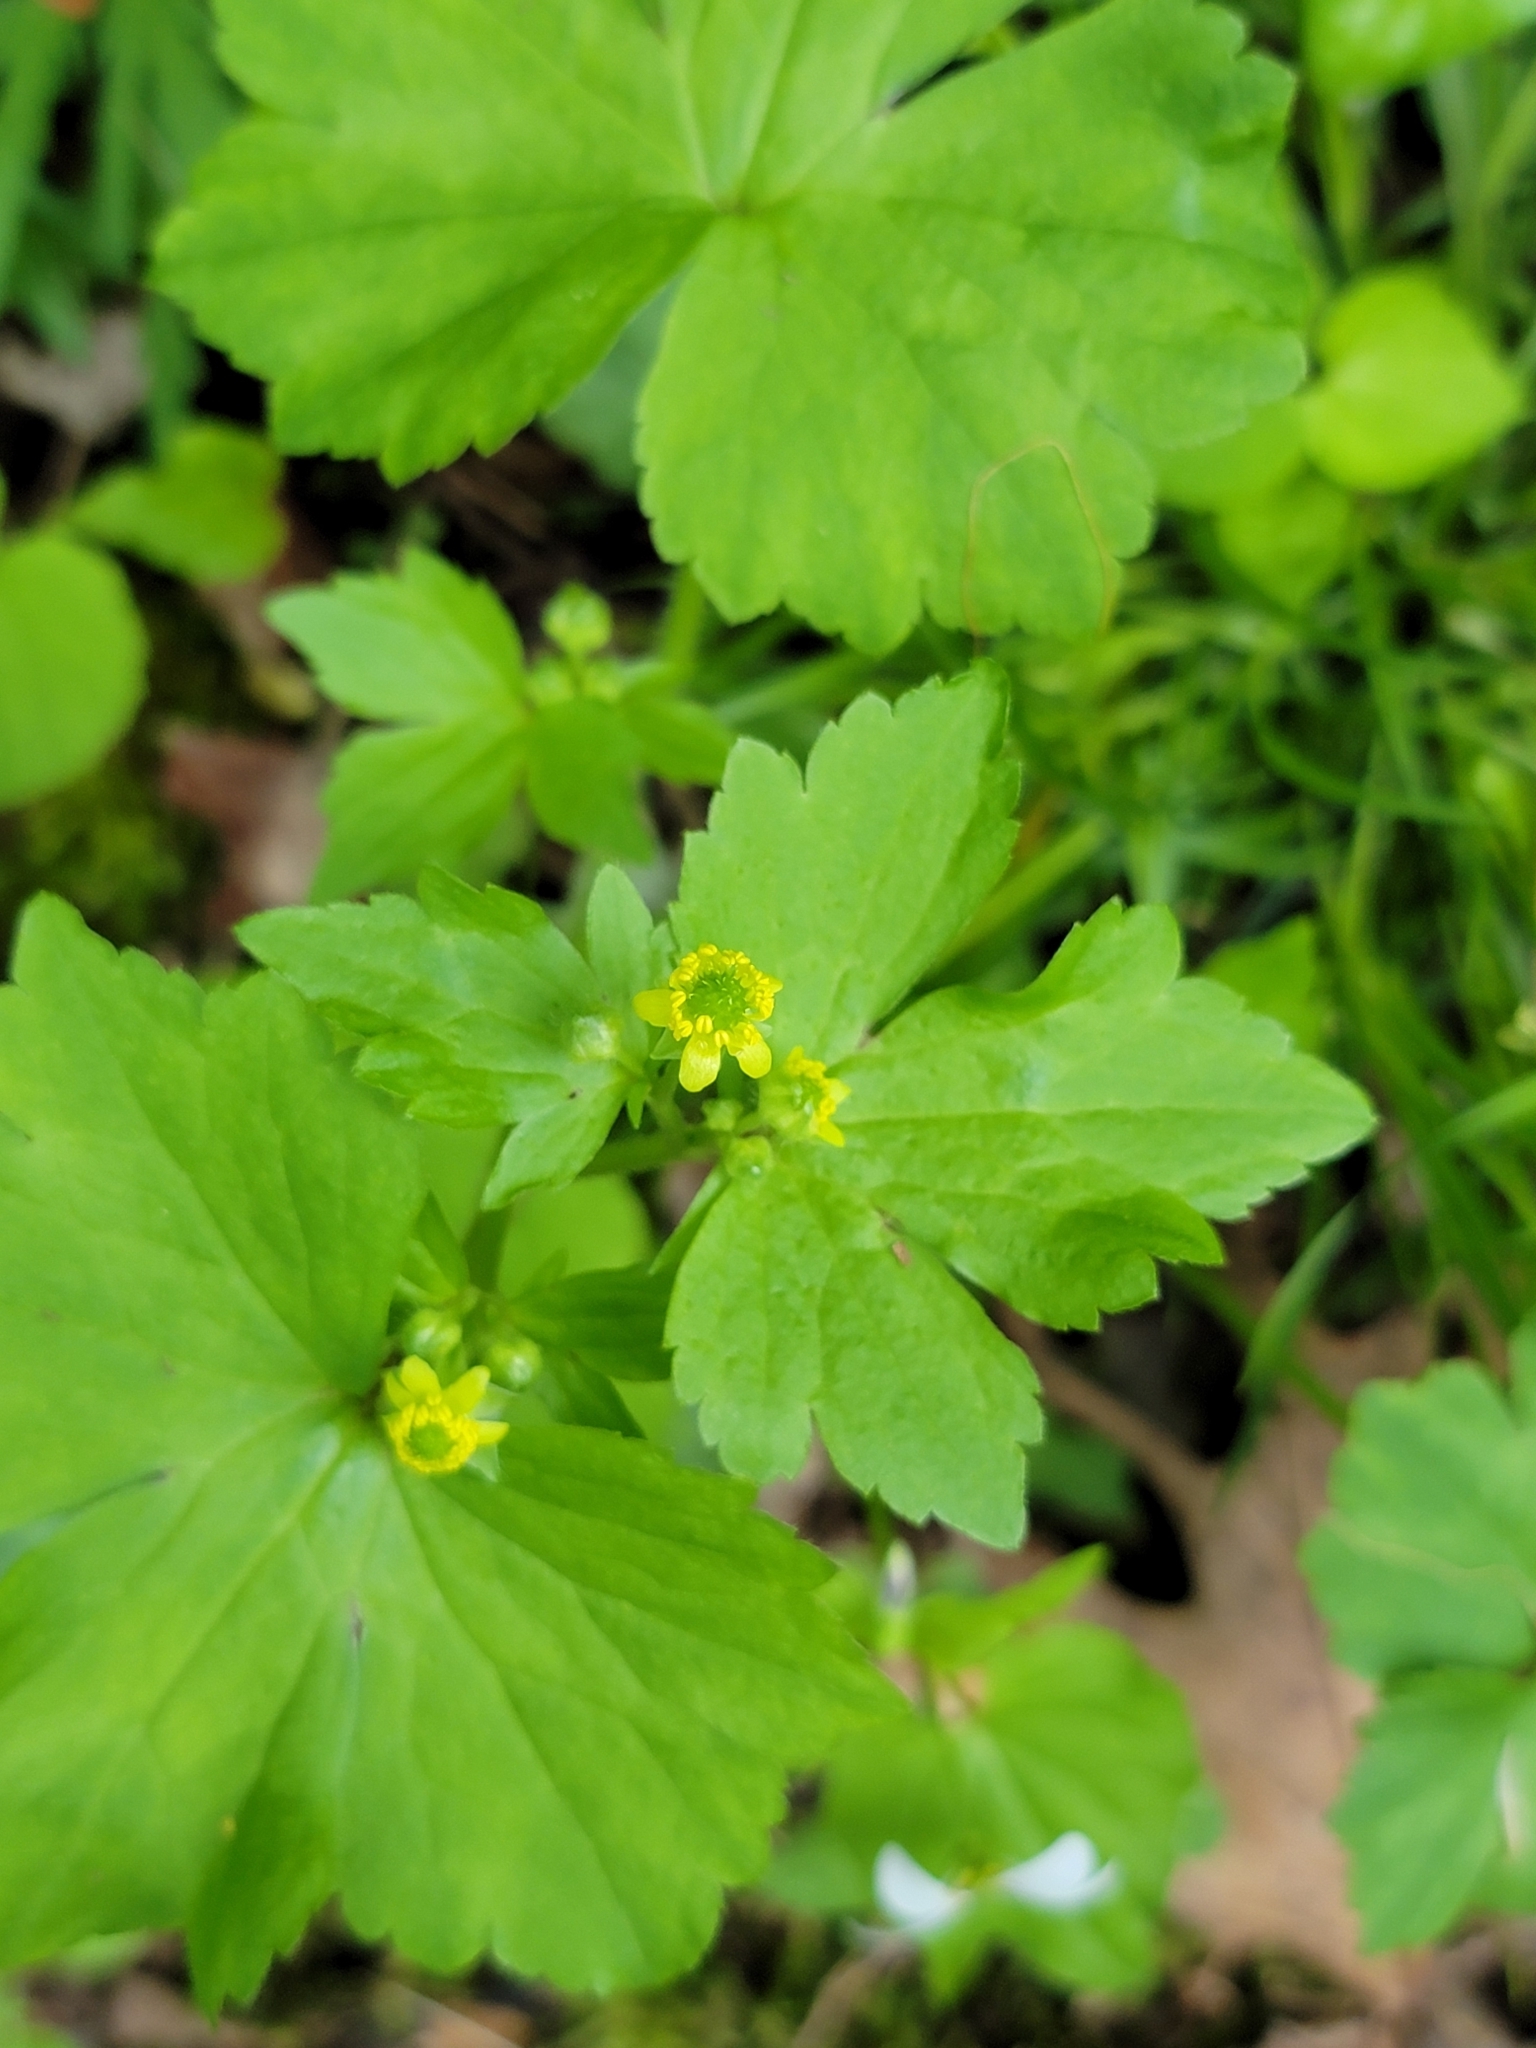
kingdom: Plantae
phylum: Tracheophyta
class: Magnoliopsida
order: Ranunculales
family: Ranunculaceae
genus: Ranunculus
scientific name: Ranunculus recurvatus
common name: Blisterwort
